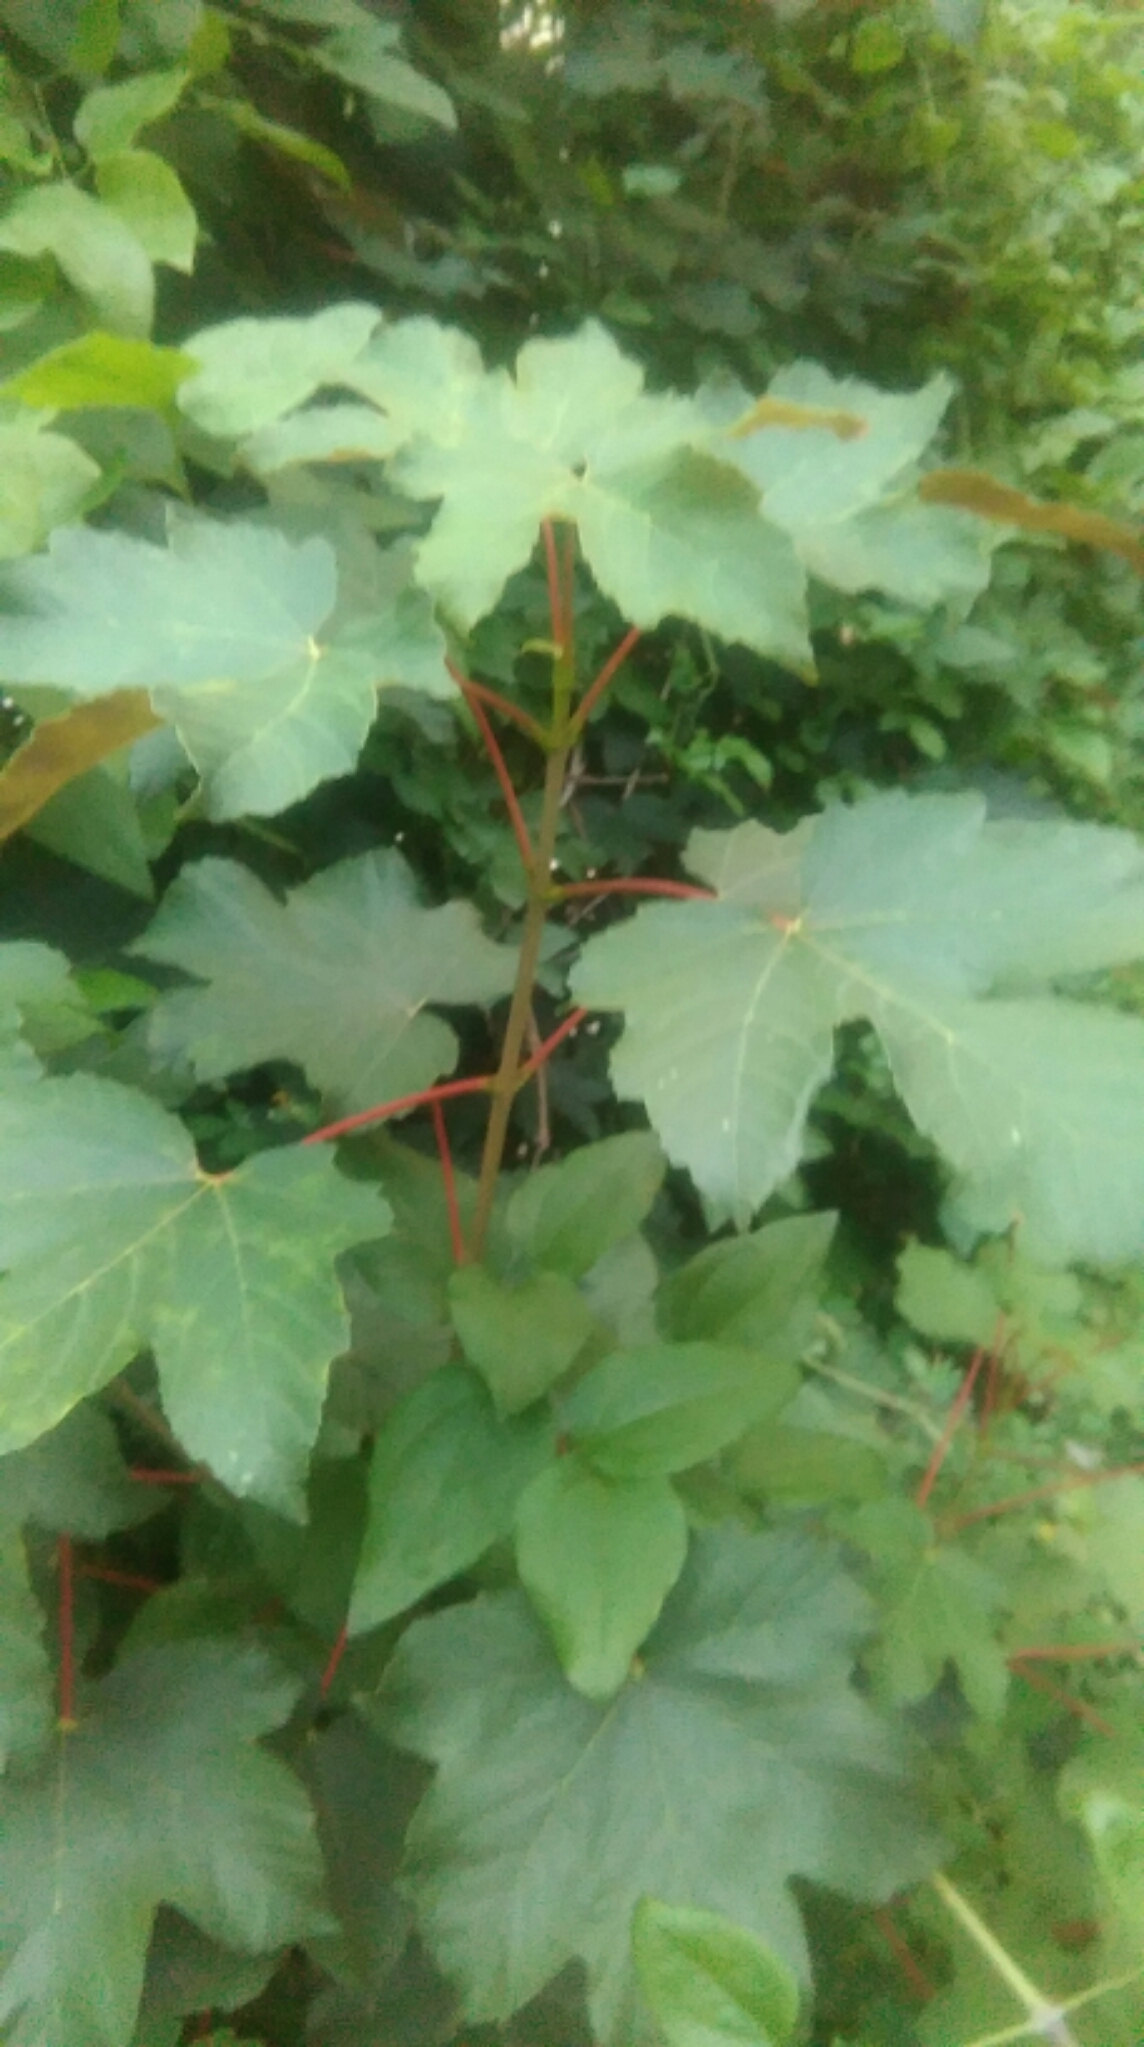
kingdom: Plantae
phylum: Tracheophyta
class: Magnoliopsida
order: Sapindales
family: Sapindaceae
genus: Acer
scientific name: Acer pseudoplatanus
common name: Sycamore
